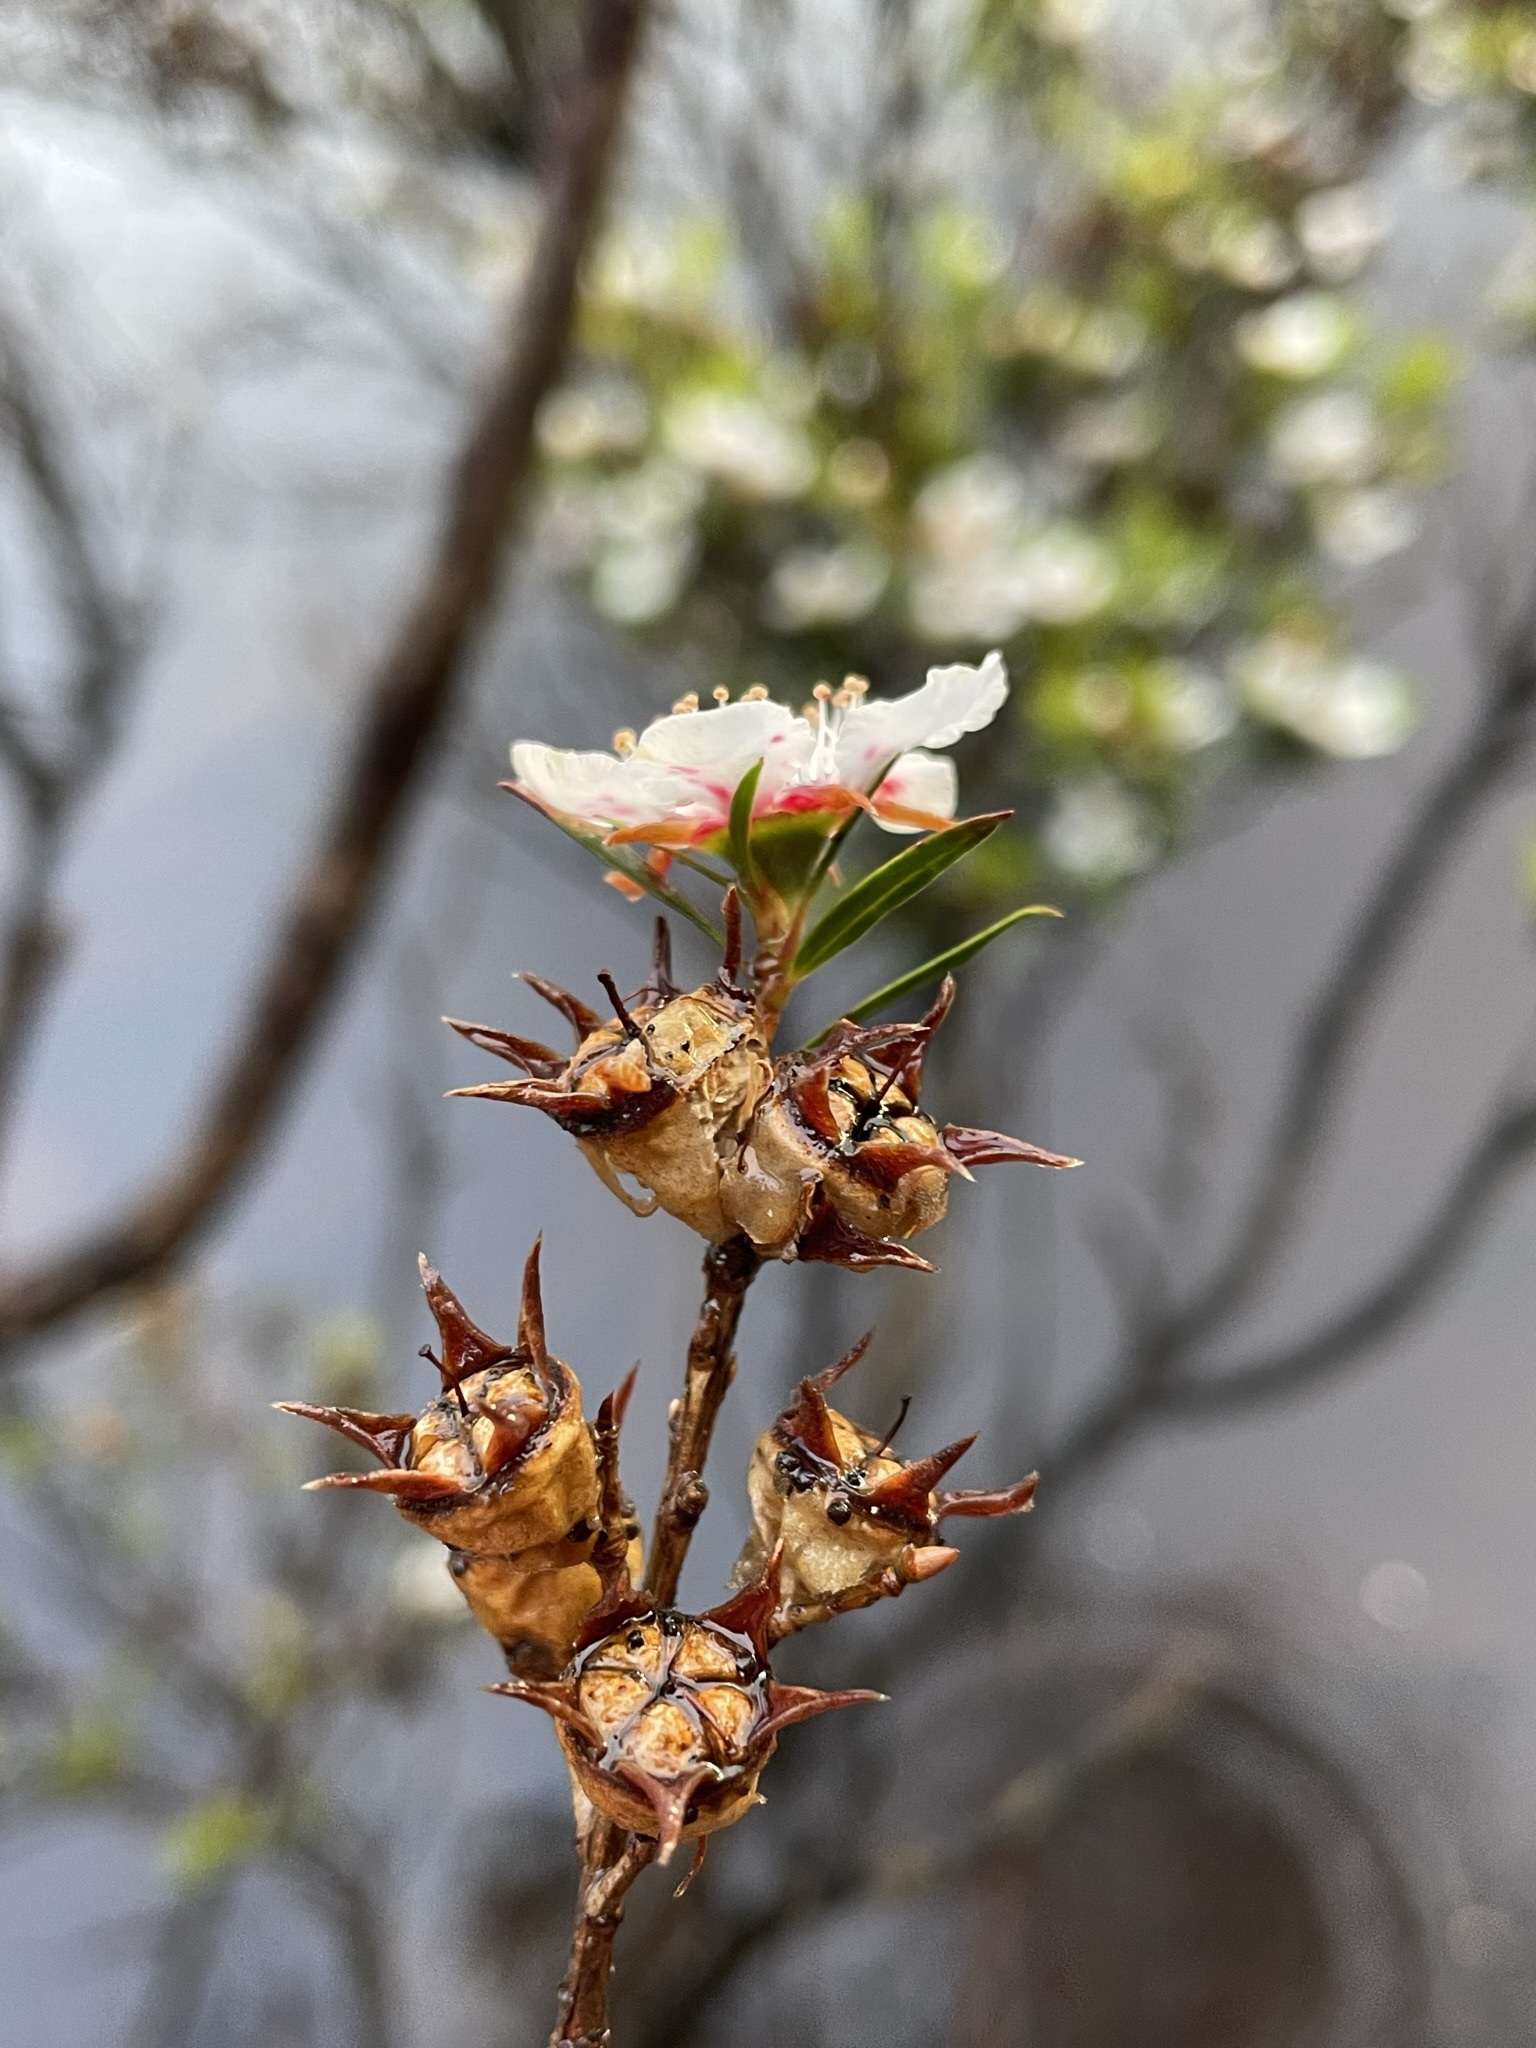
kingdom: Plantae
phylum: Tracheophyta
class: Magnoliopsida
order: Myrtales
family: Myrtaceae
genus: Leptospermum
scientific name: Leptospermum nitidum
